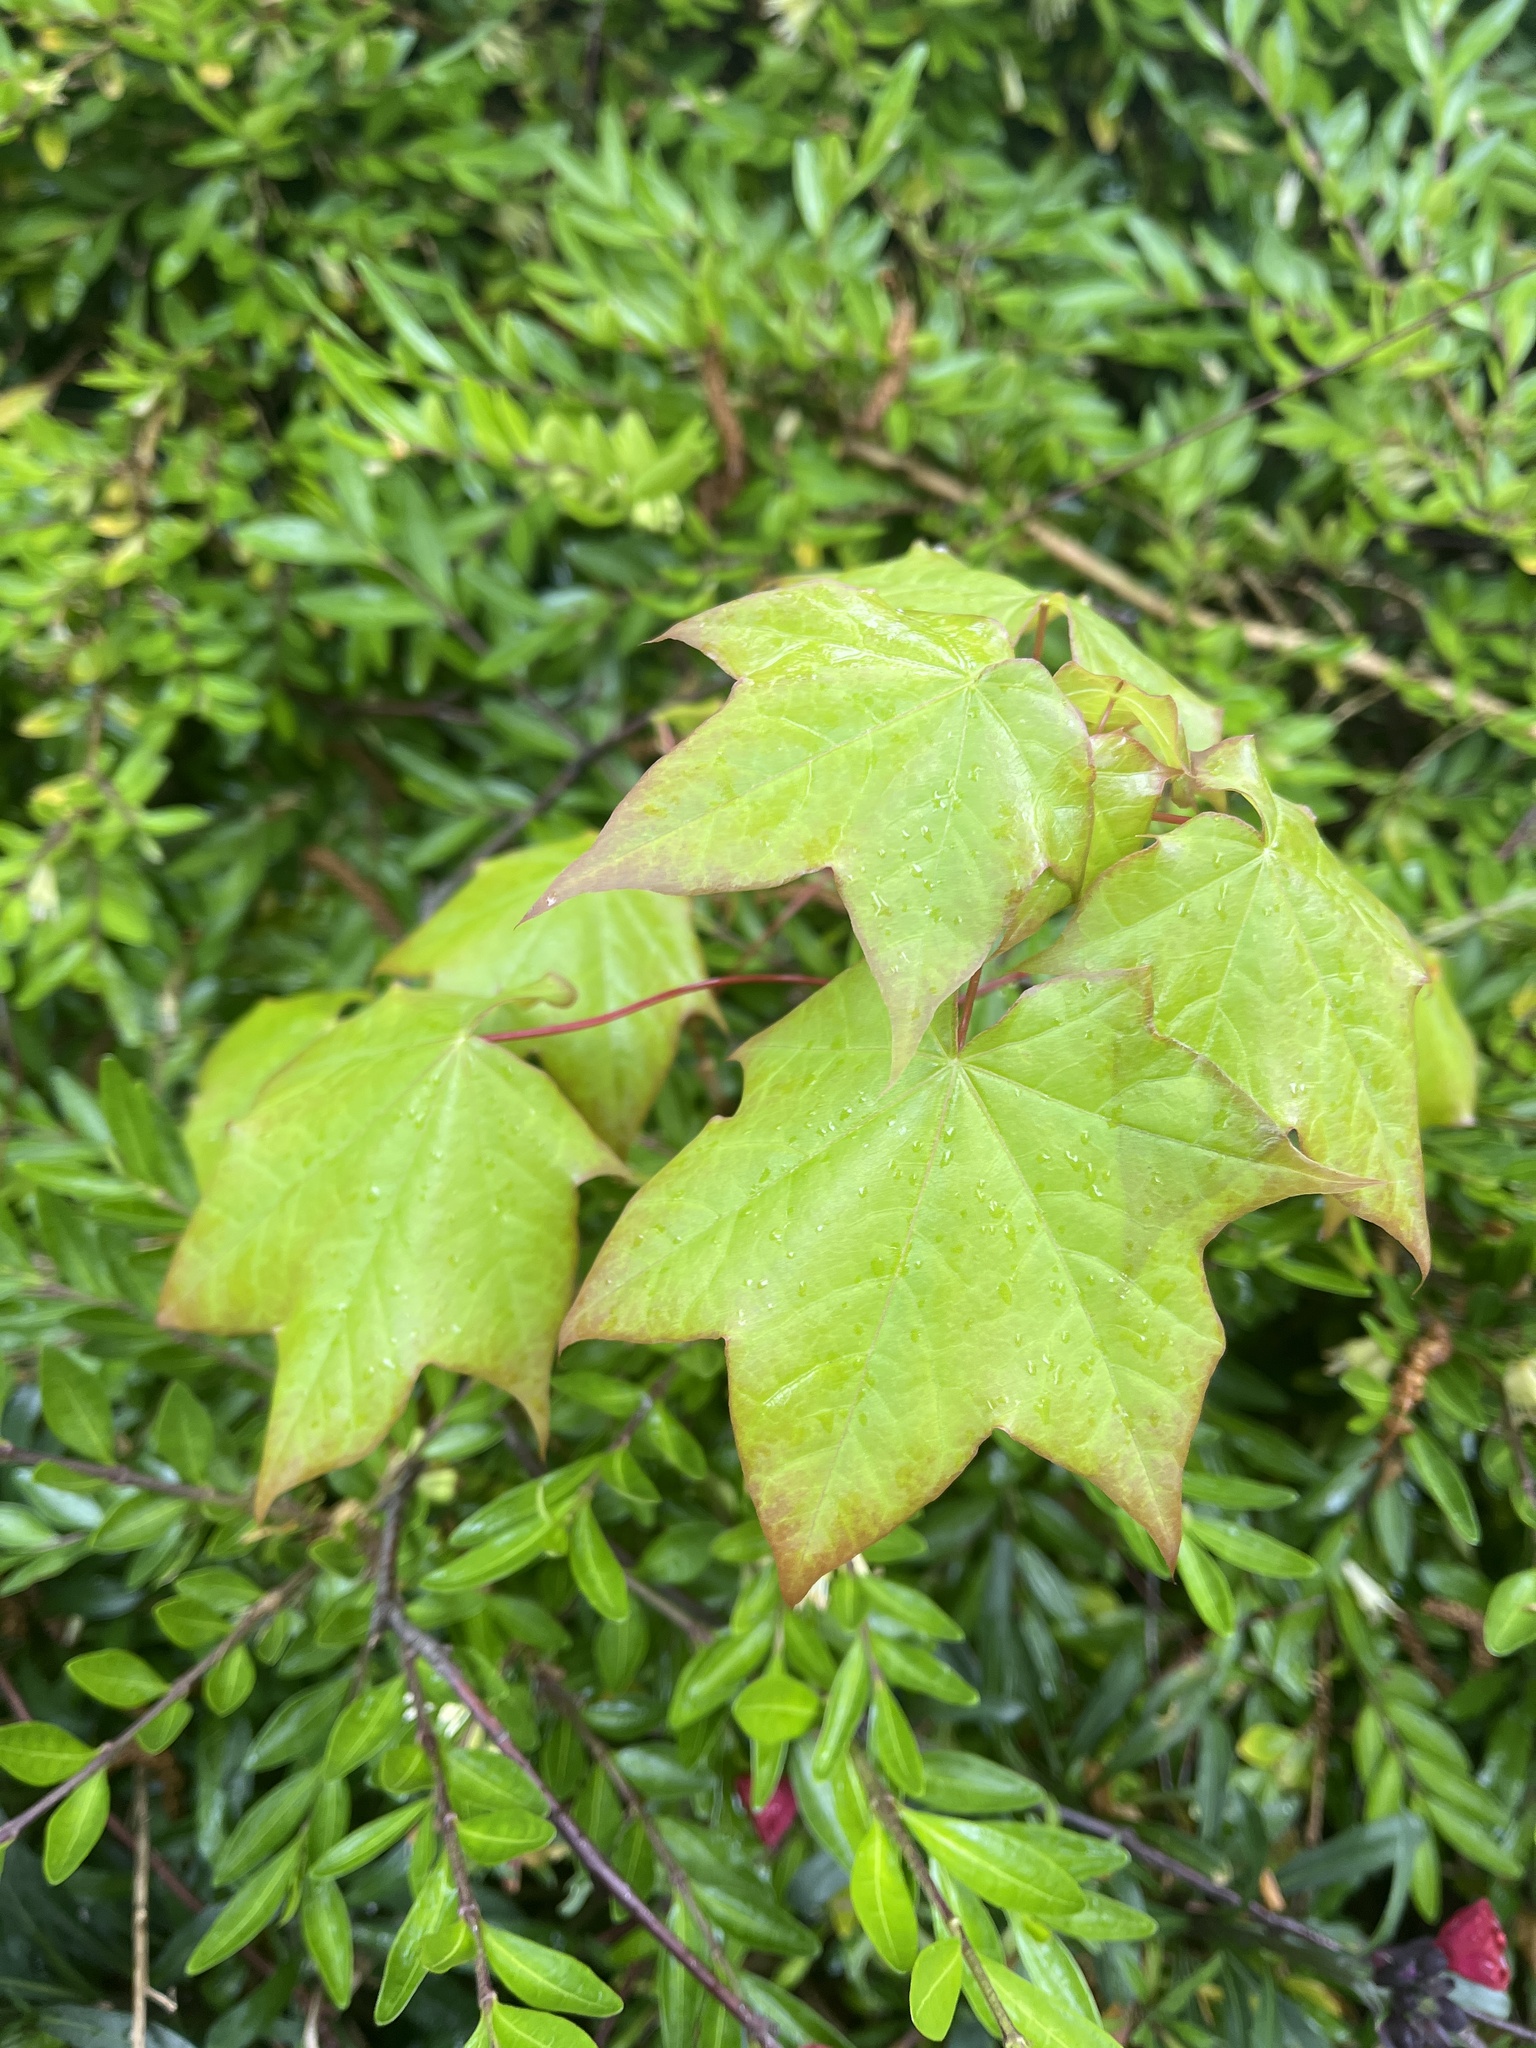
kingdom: Plantae
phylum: Tracheophyta
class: Magnoliopsida
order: Sapindales
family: Sapindaceae
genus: Acer
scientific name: Acer cappadocicum
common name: Cappadocian maple
